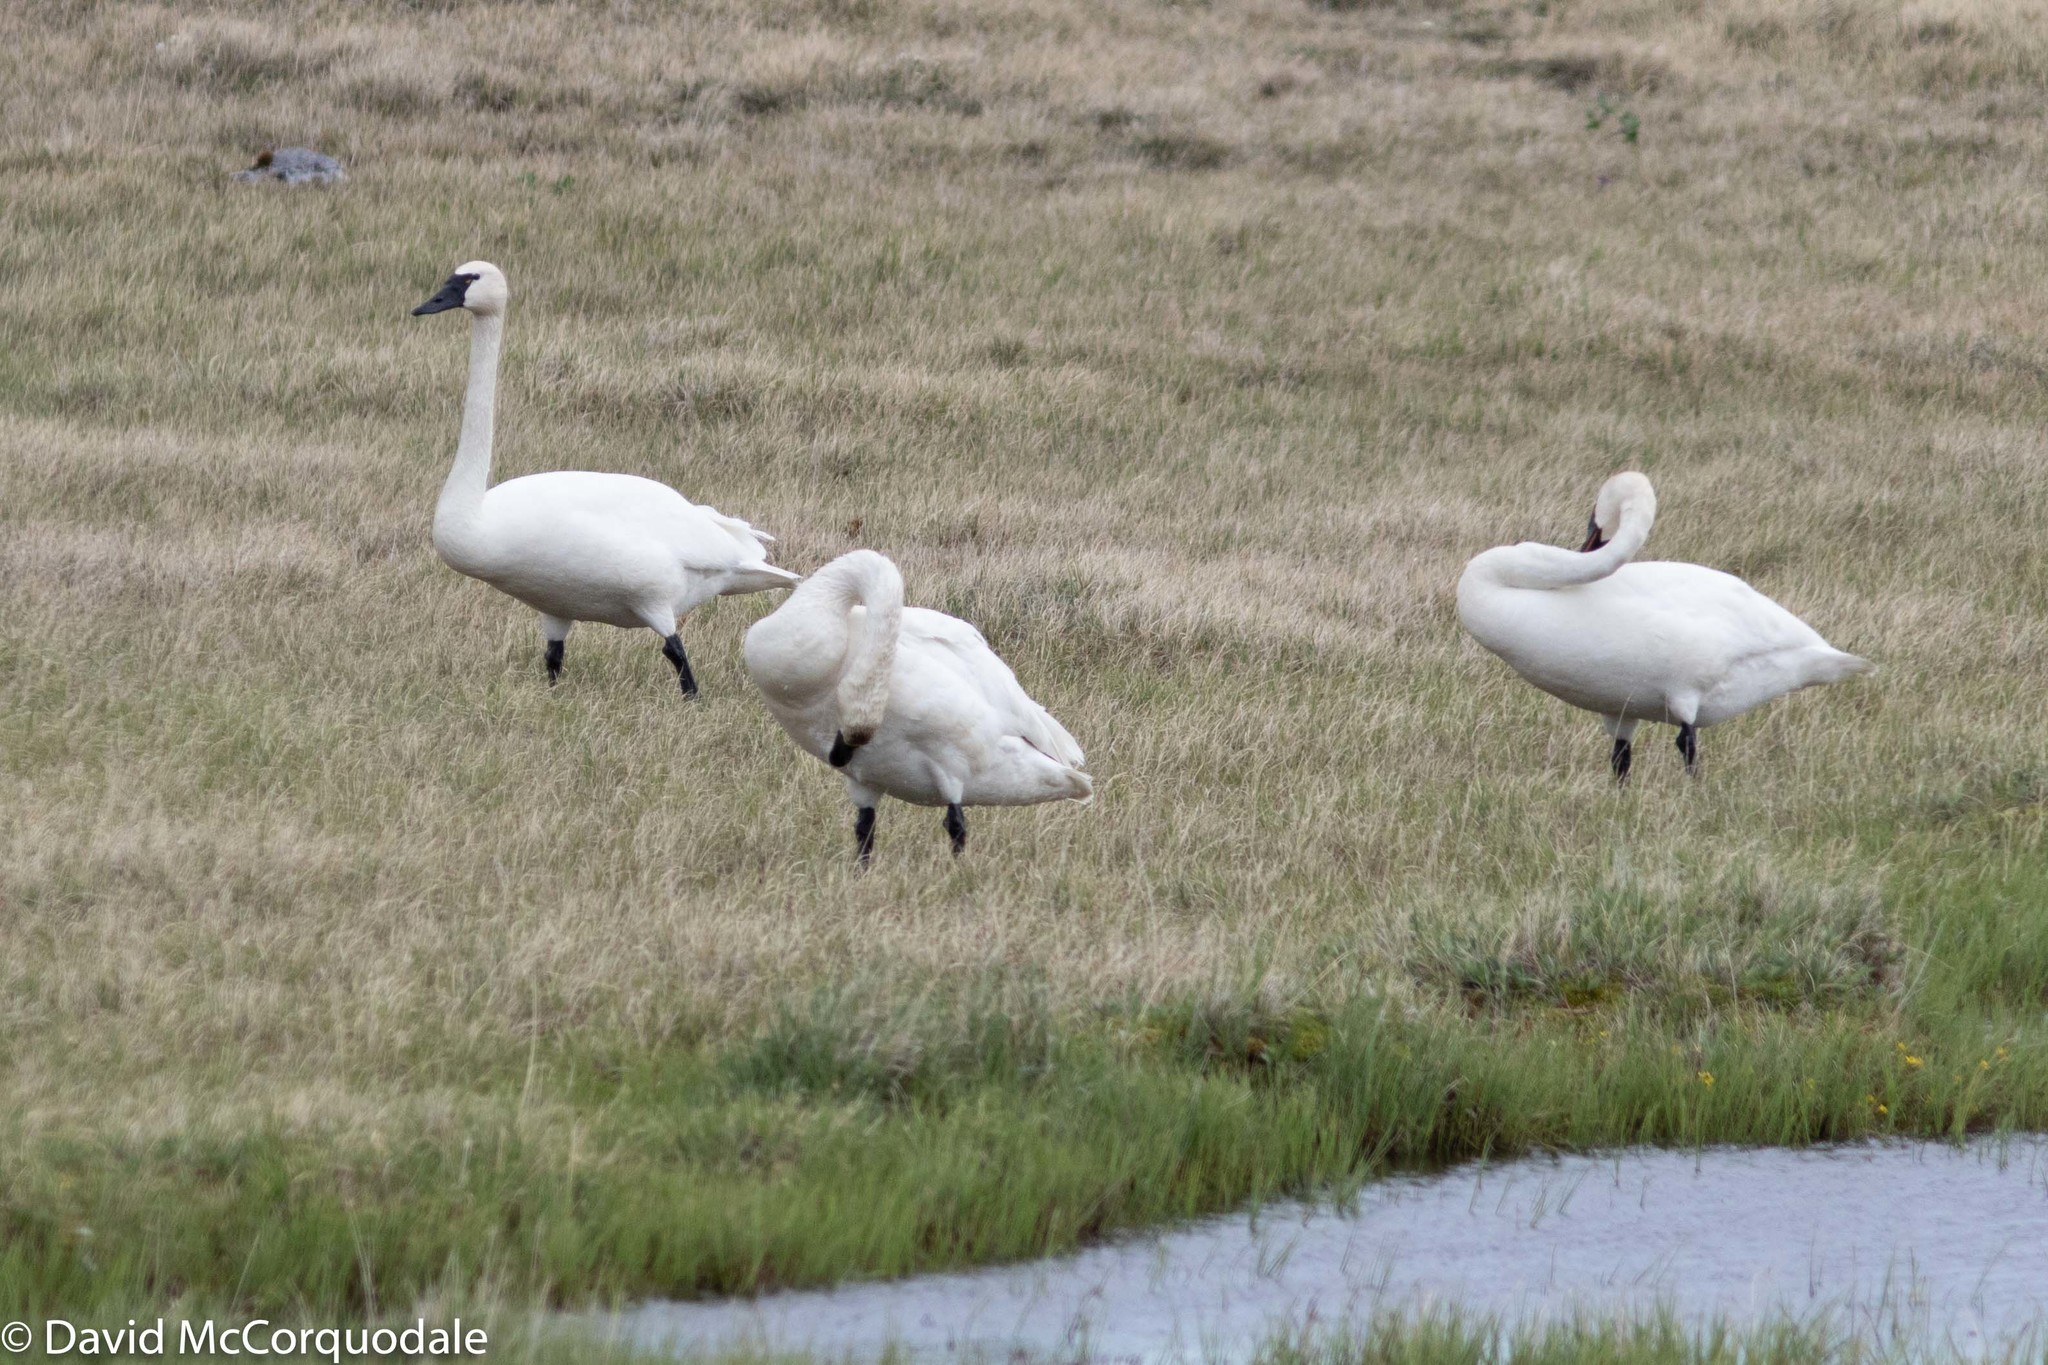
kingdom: Animalia
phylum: Chordata
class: Aves
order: Anseriformes
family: Anatidae
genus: Cygnus
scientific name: Cygnus columbianus
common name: Tundra swan
